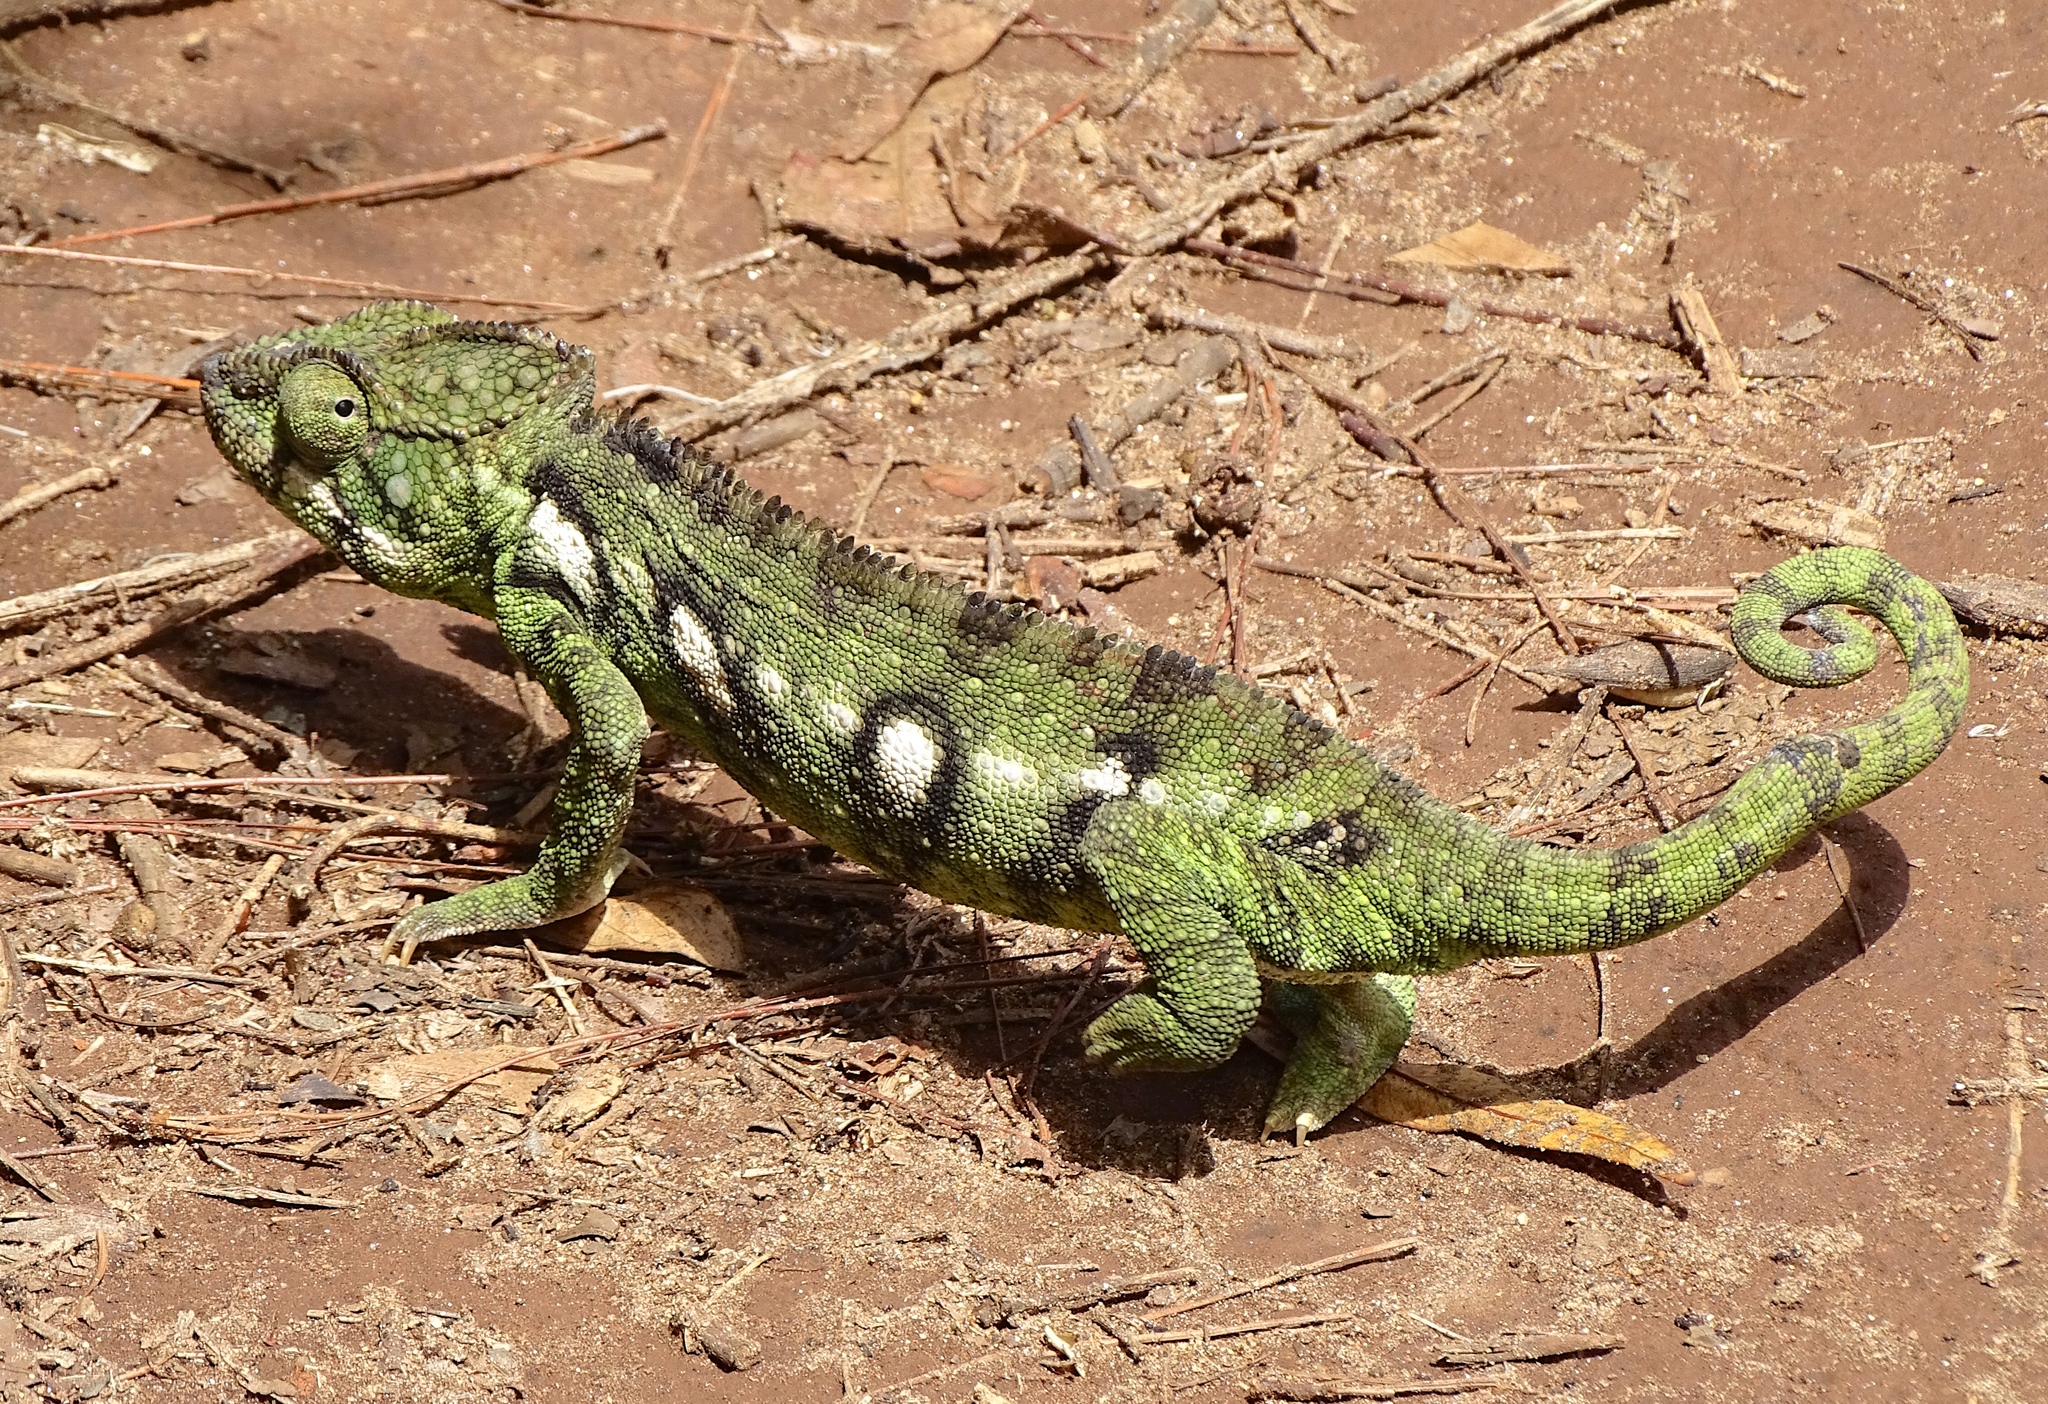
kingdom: Animalia
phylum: Chordata
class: Squamata
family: Chamaeleonidae
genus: Furcifer
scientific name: Furcifer oustaleti
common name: Oustalet's chameleon
